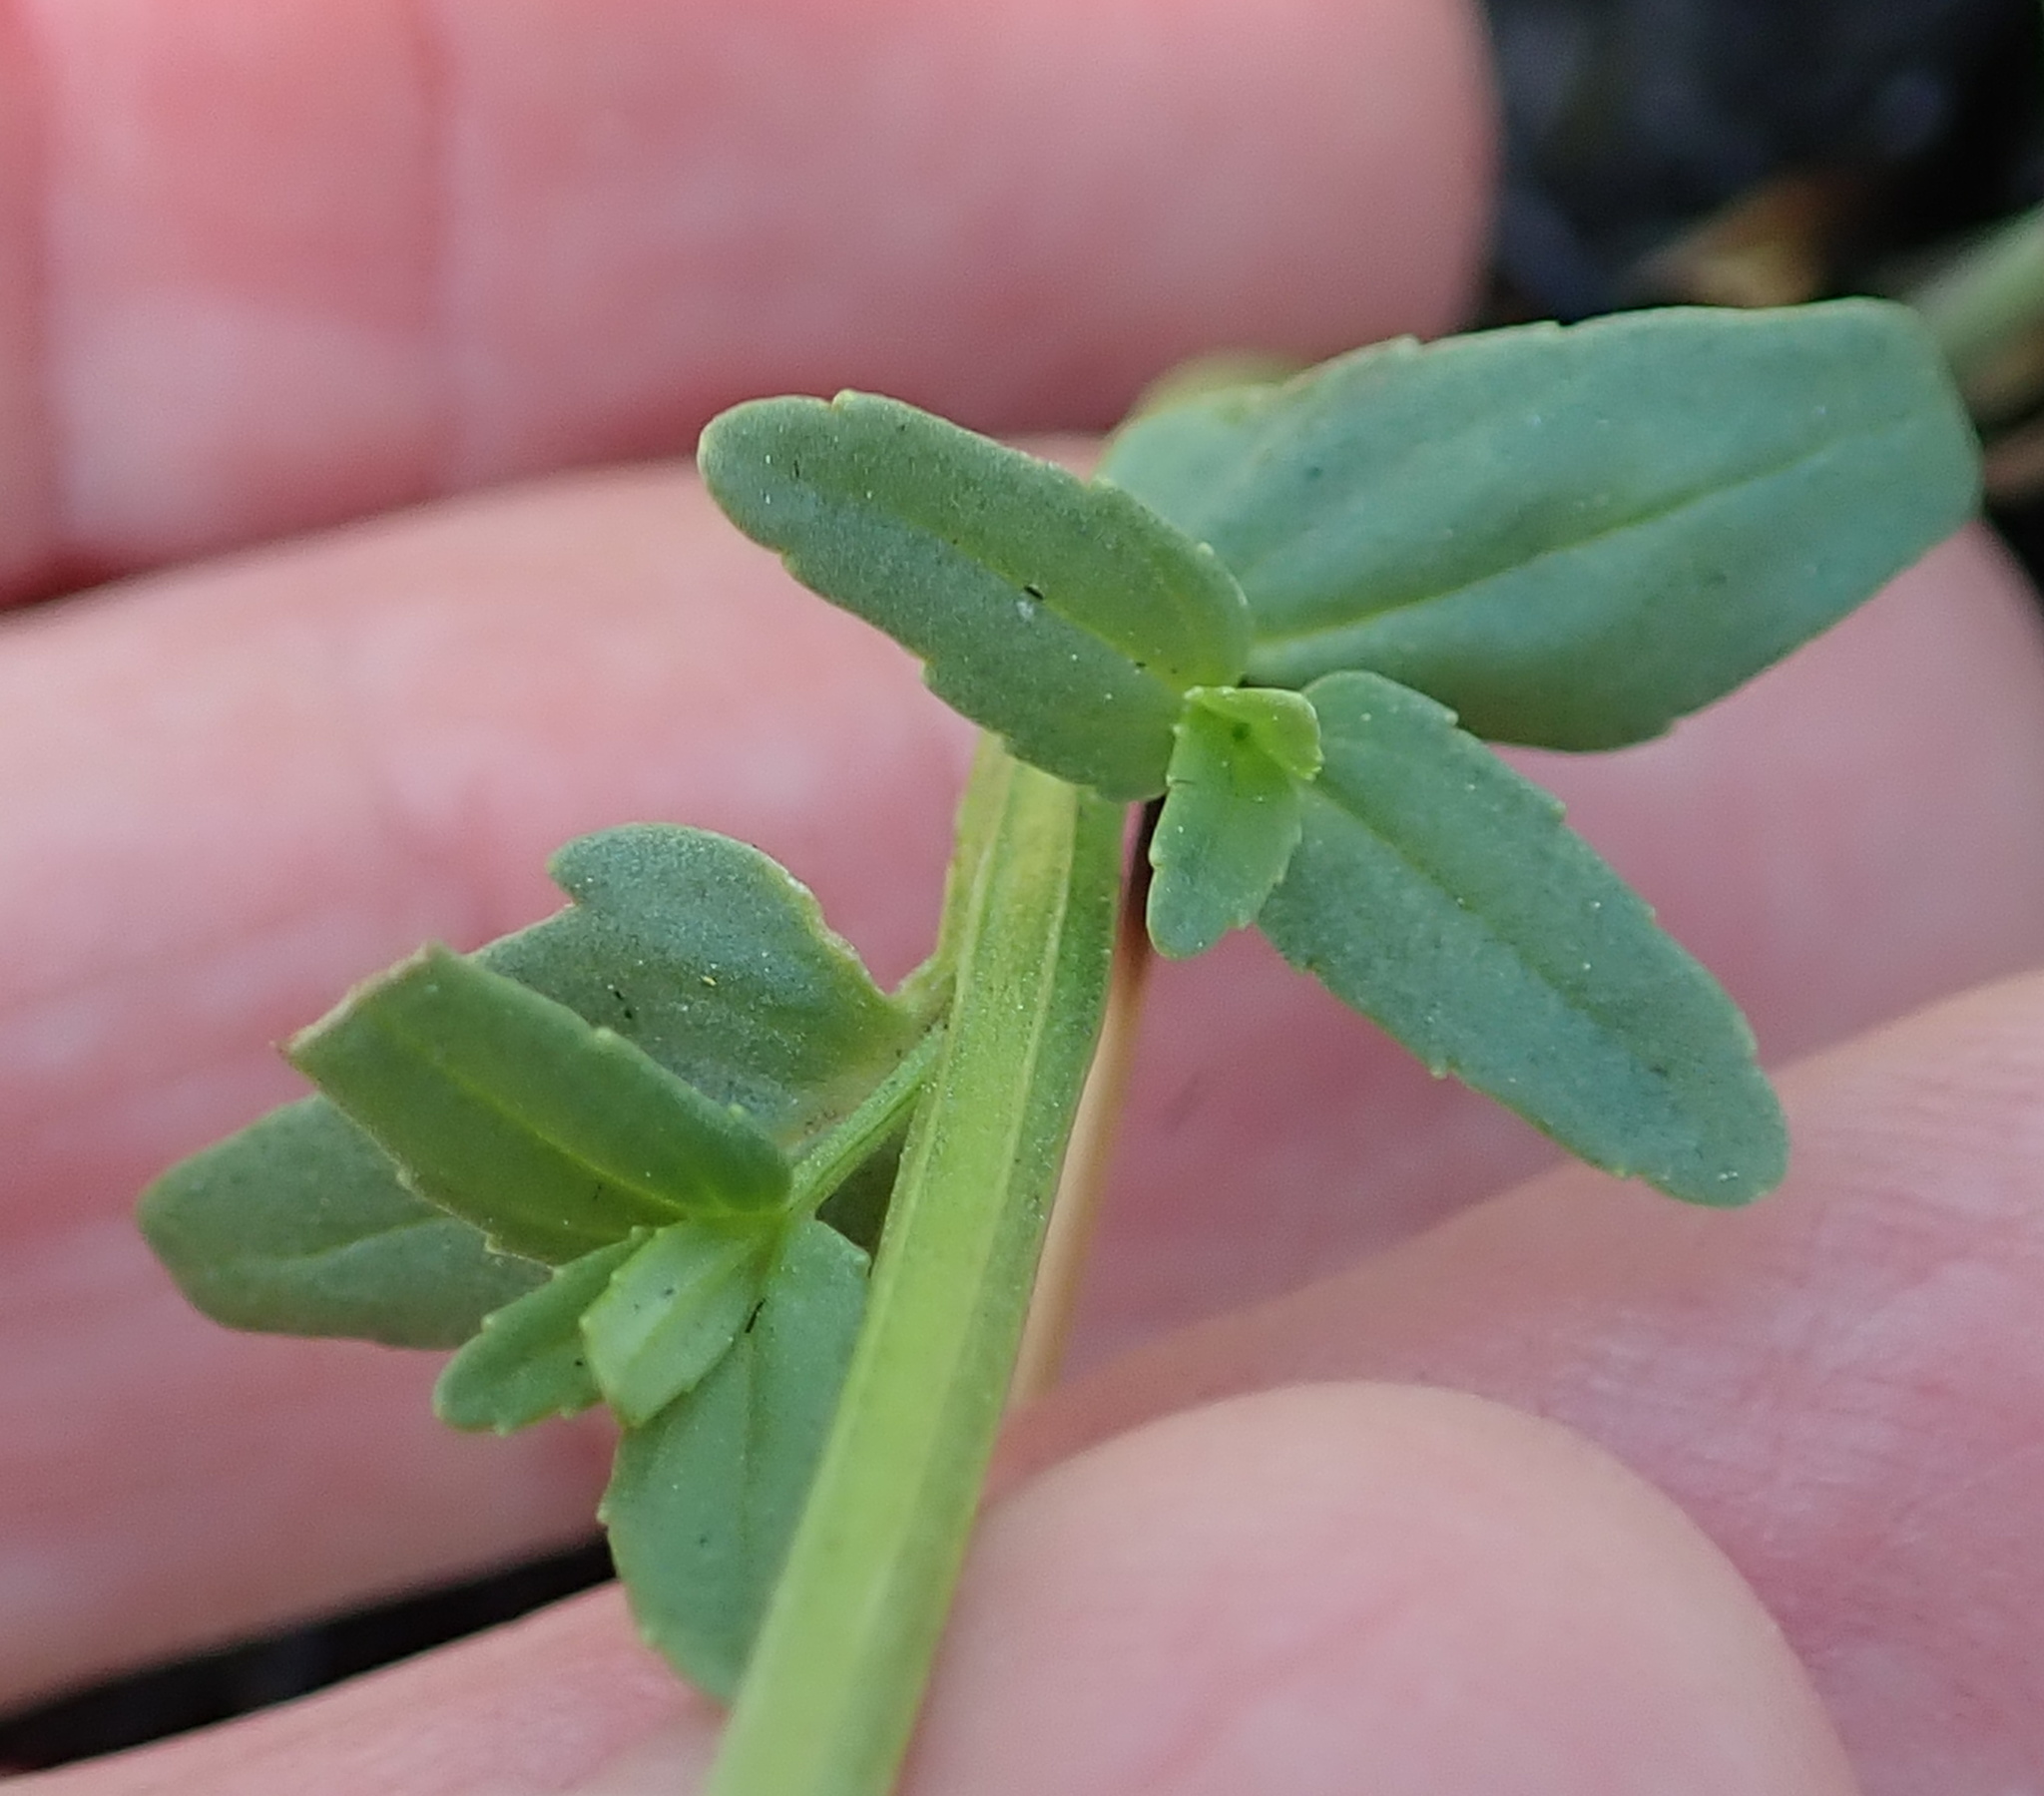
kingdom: Plantae
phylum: Tracheophyta
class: Magnoliopsida
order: Lamiales
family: Scrophulariaceae
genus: Nemesia
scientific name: Nemesia denticulata
